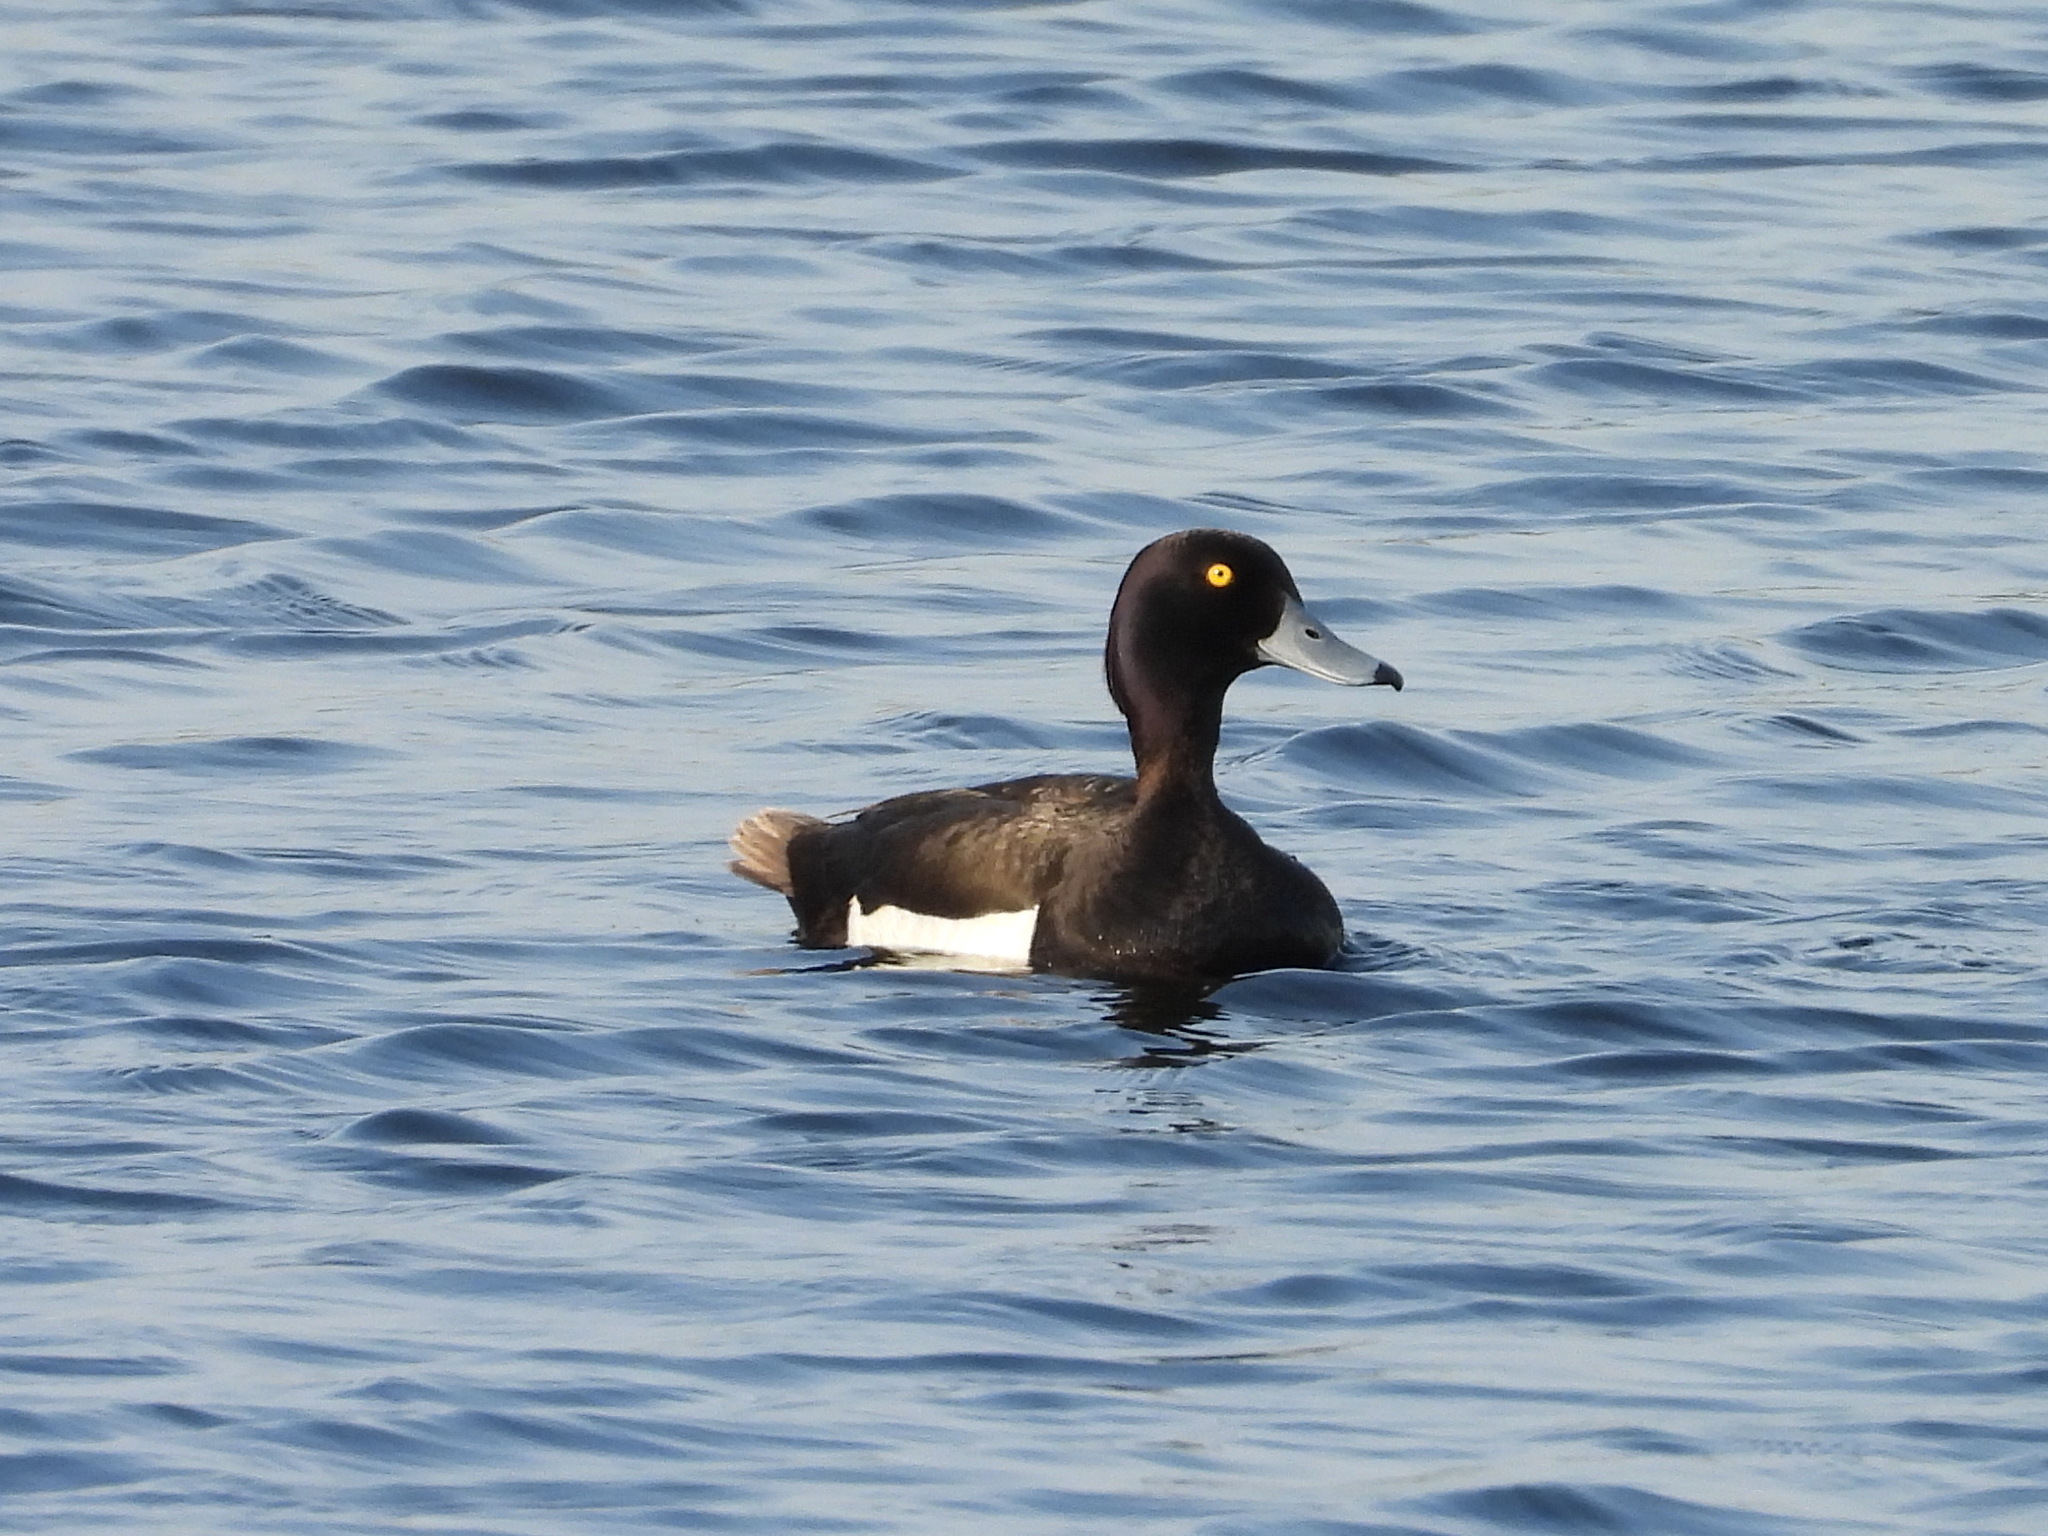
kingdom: Animalia
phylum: Chordata
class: Aves
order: Anseriformes
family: Anatidae
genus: Aythya
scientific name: Aythya fuligula
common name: Tufted duck
